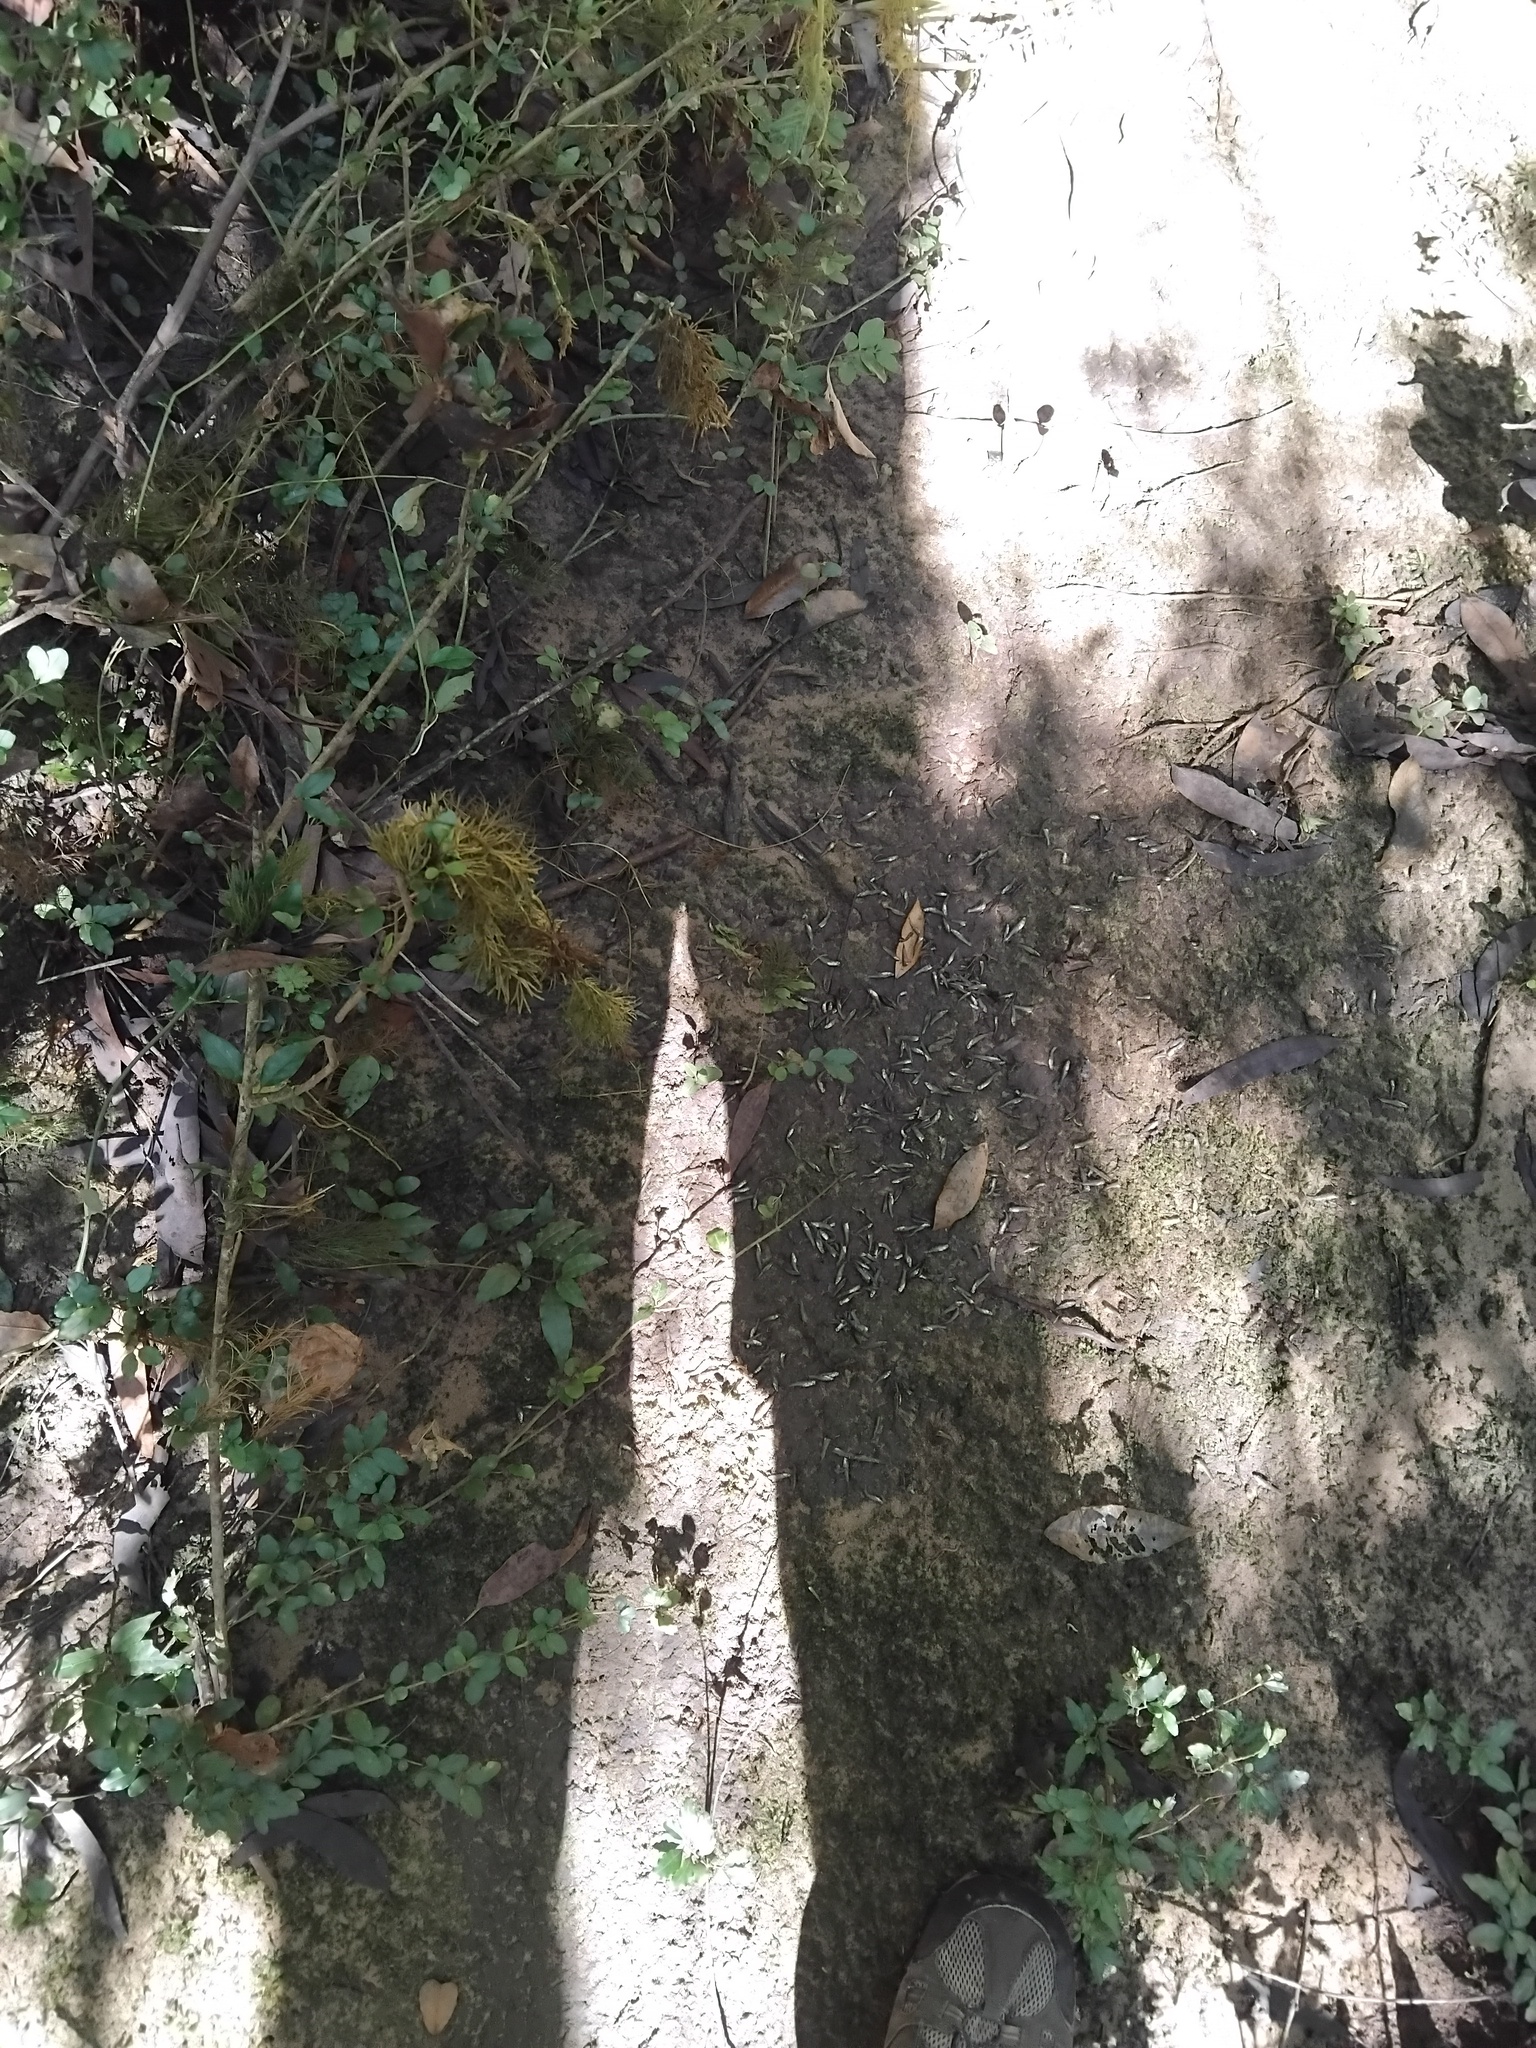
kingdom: Animalia
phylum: Chordata
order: Cyprinodontiformes
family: Poeciliidae
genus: Gambusia
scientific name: Gambusia holbrooki
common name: Eastern mosquitofish
